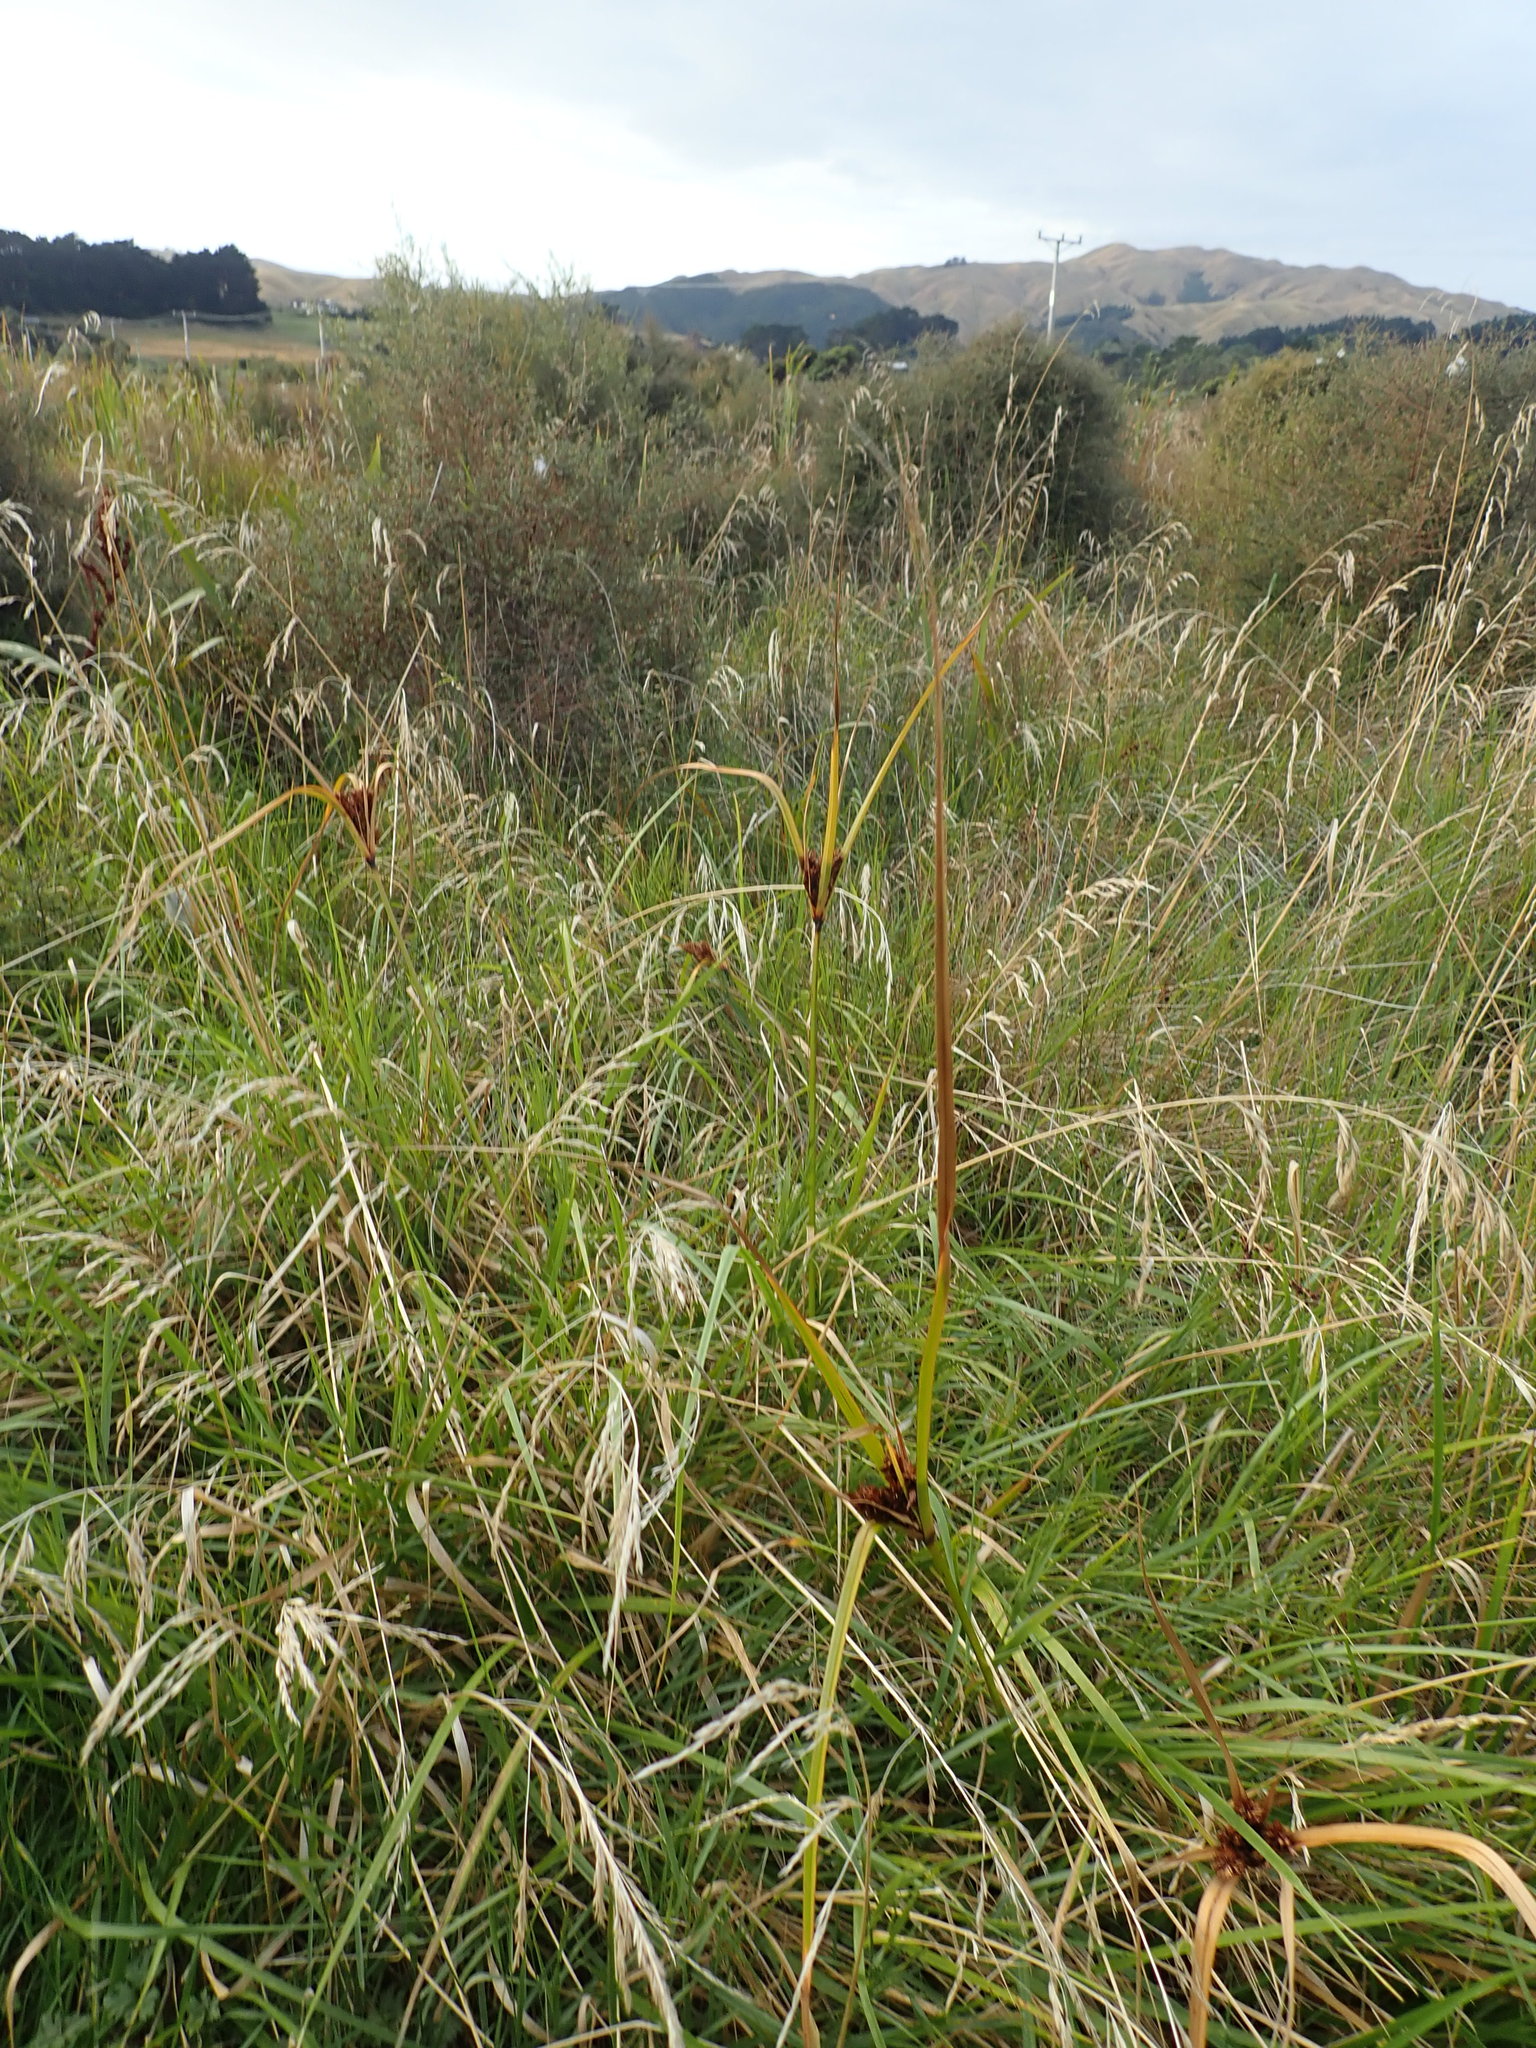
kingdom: Plantae
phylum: Tracheophyta
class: Liliopsida
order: Poales
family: Cyperaceae
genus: Cyperus
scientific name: Cyperus ustulatus
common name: Giant umbrella-sedge
